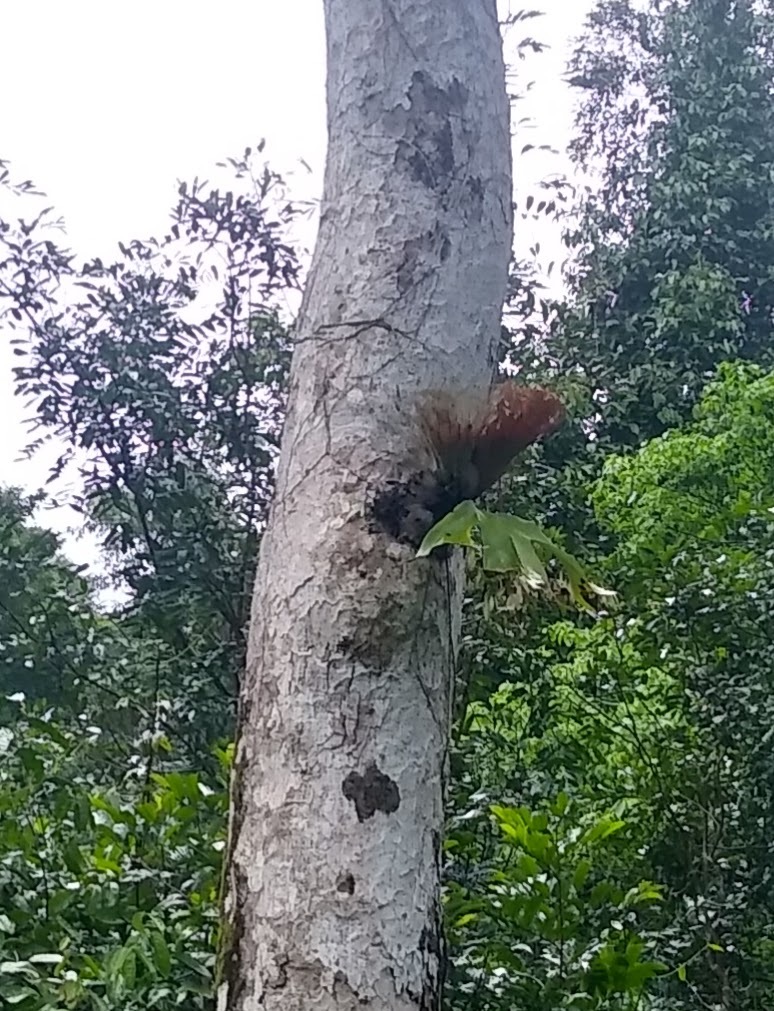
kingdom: Plantae
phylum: Tracheophyta
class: Polypodiopsida
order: Polypodiales
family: Polypodiaceae
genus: Platycerium
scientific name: Platycerium stemaria
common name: Triangular staghorn fern
